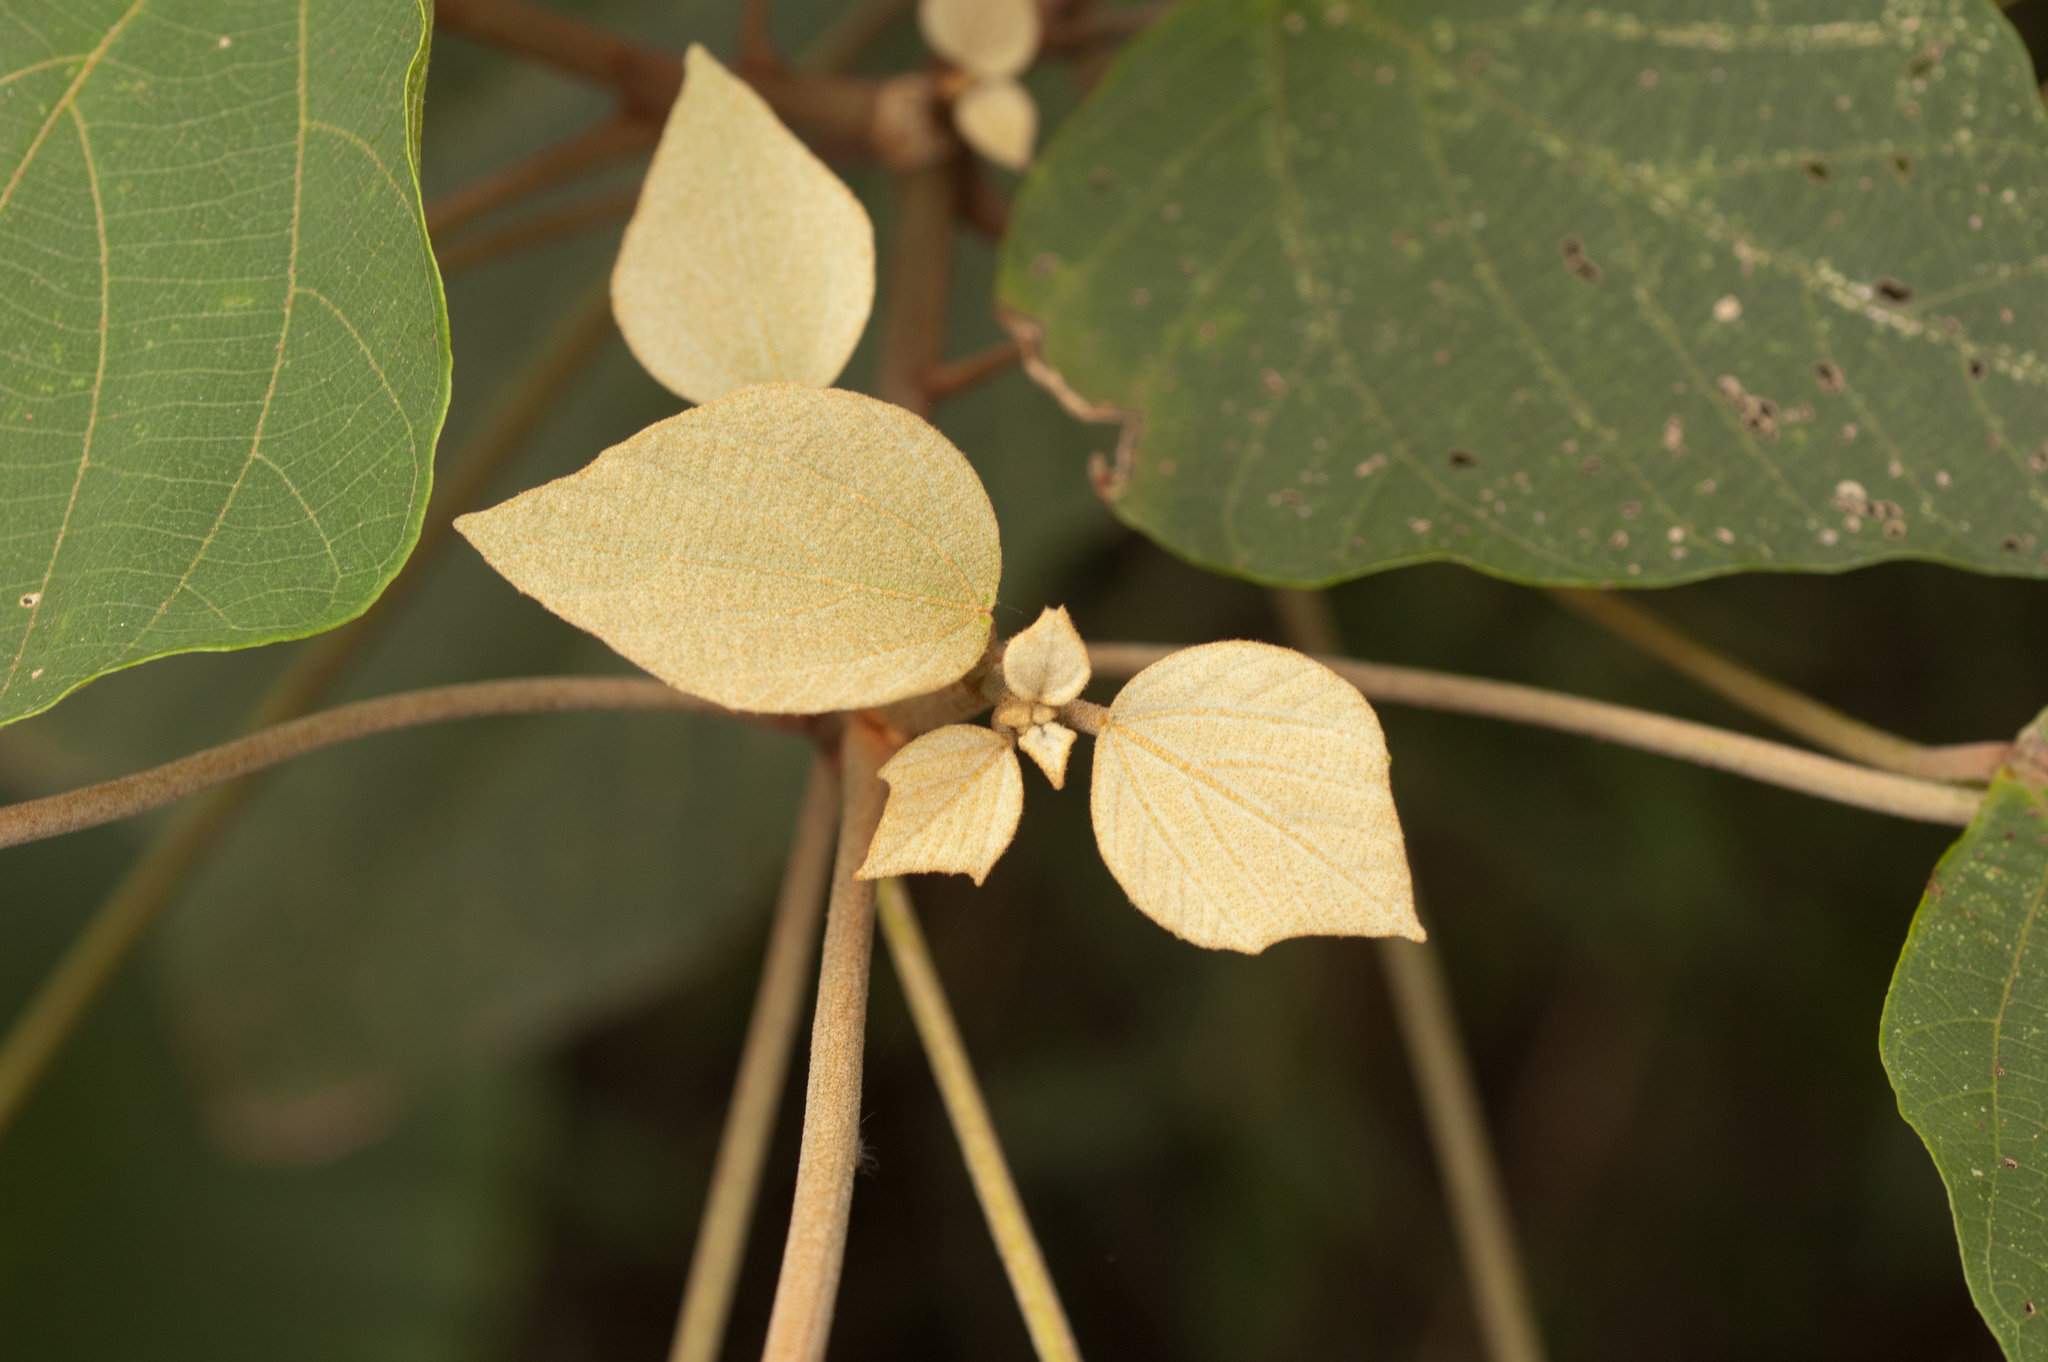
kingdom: Plantae
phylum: Tracheophyta
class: Magnoliopsida
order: Malpighiales
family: Euphorbiaceae
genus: Mallotus
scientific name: Mallotus paniculatus
